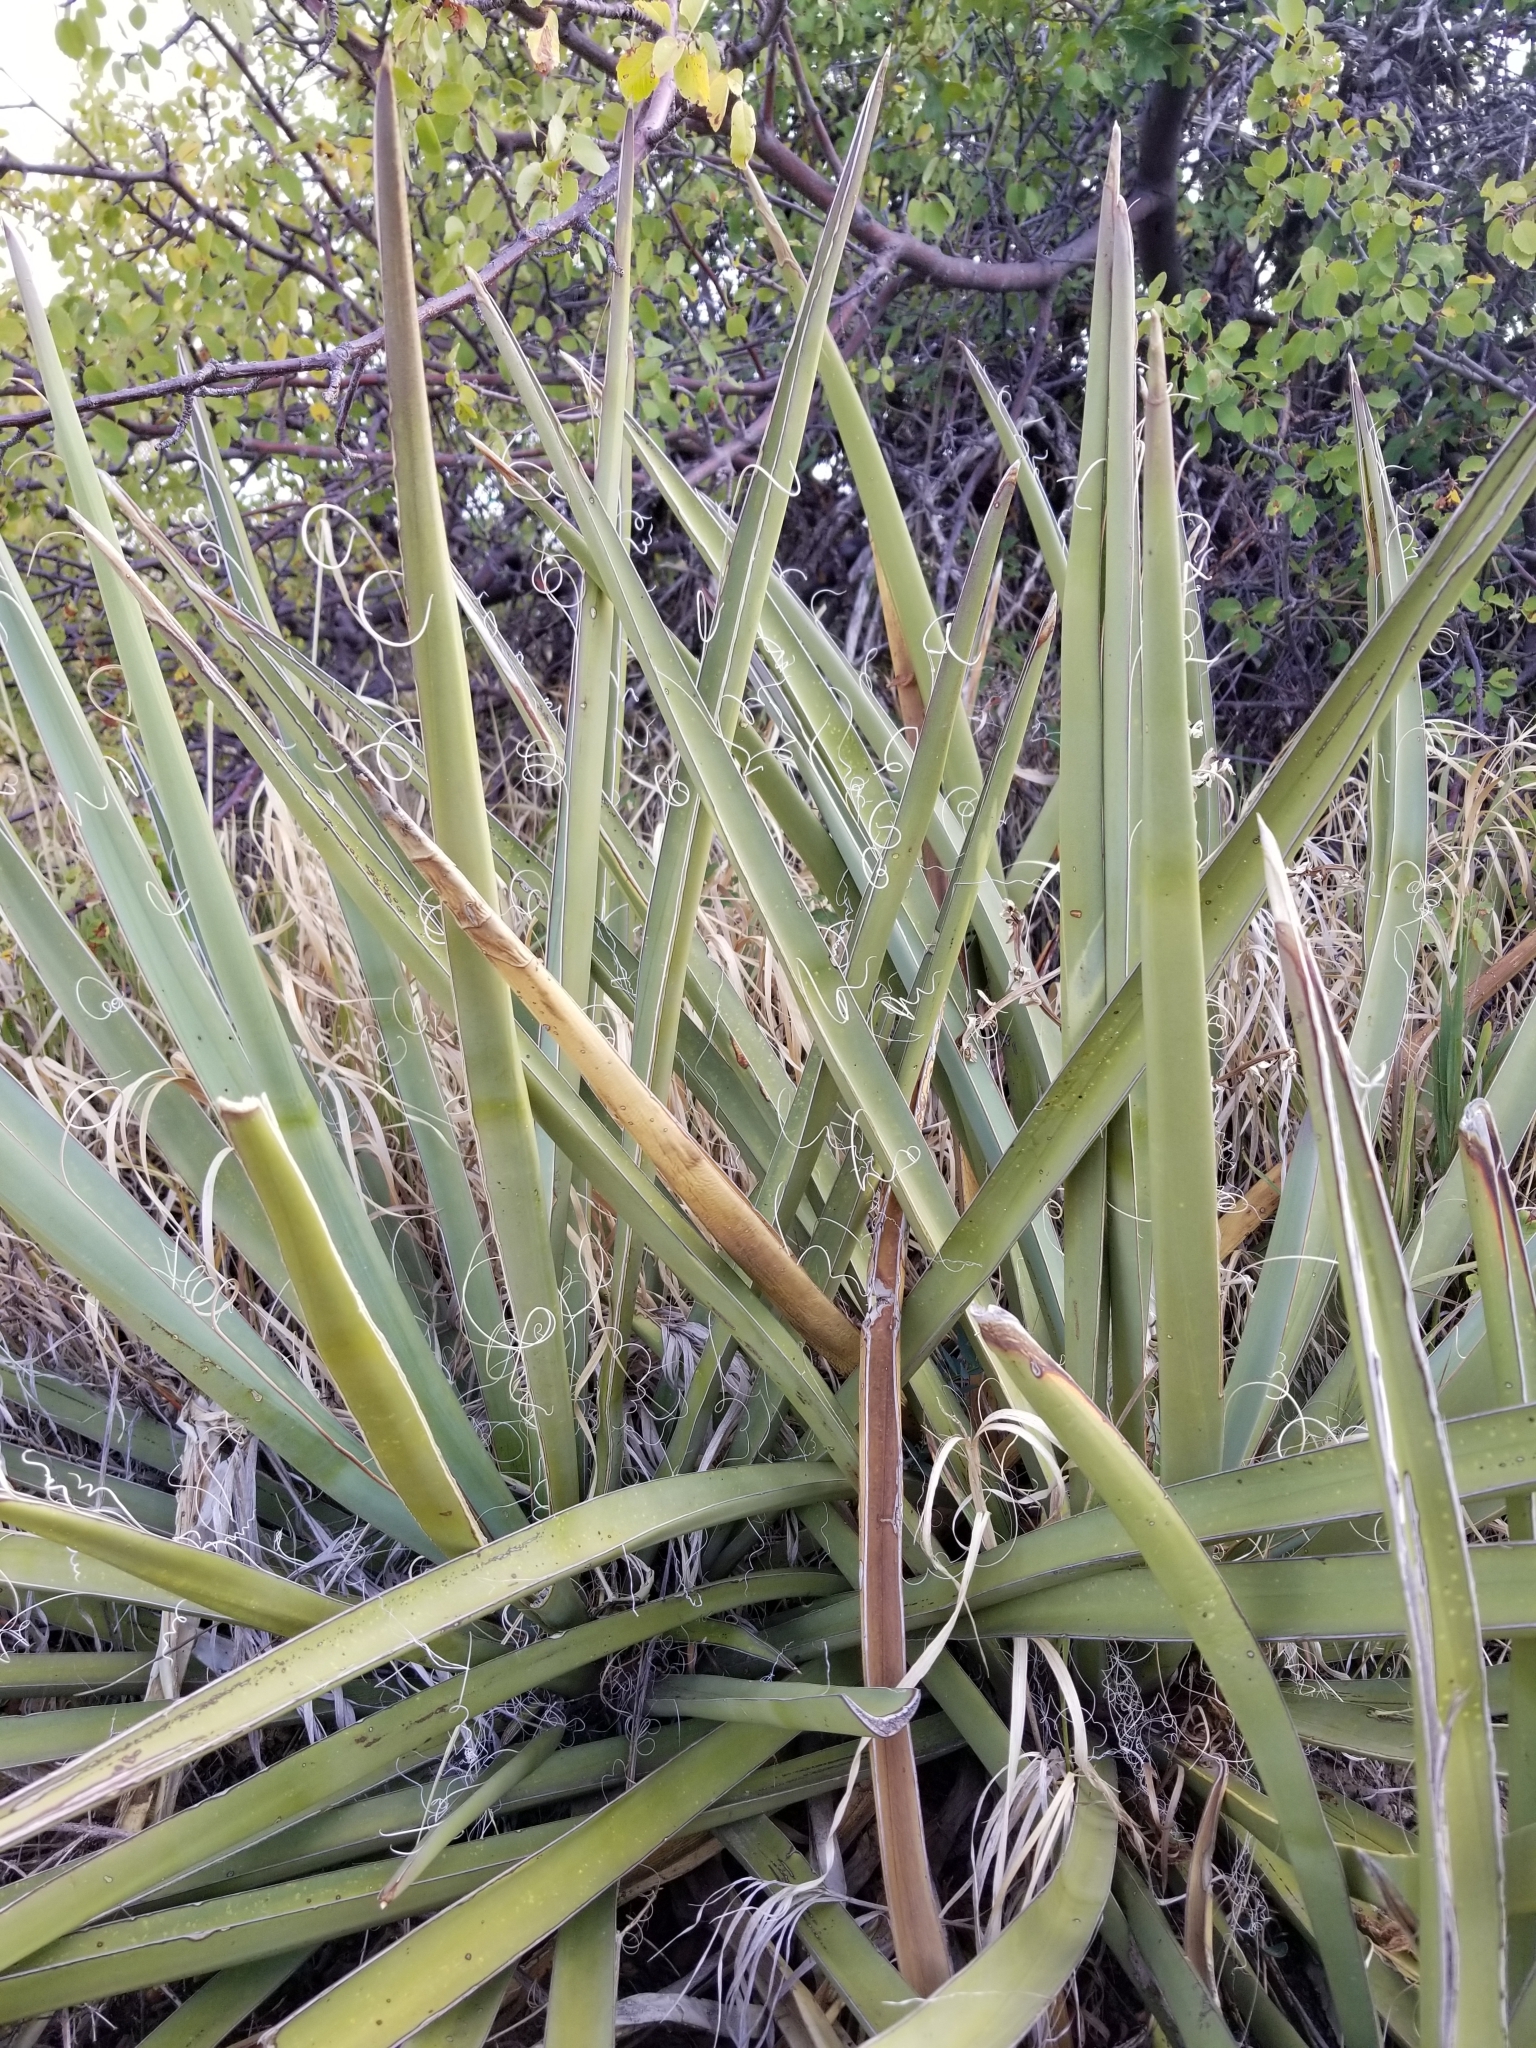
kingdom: Plantae
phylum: Tracheophyta
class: Liliopsida
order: Asparagales
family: Asparagaceae
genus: Yucca
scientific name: Yucca baccata
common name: Banana yucca
